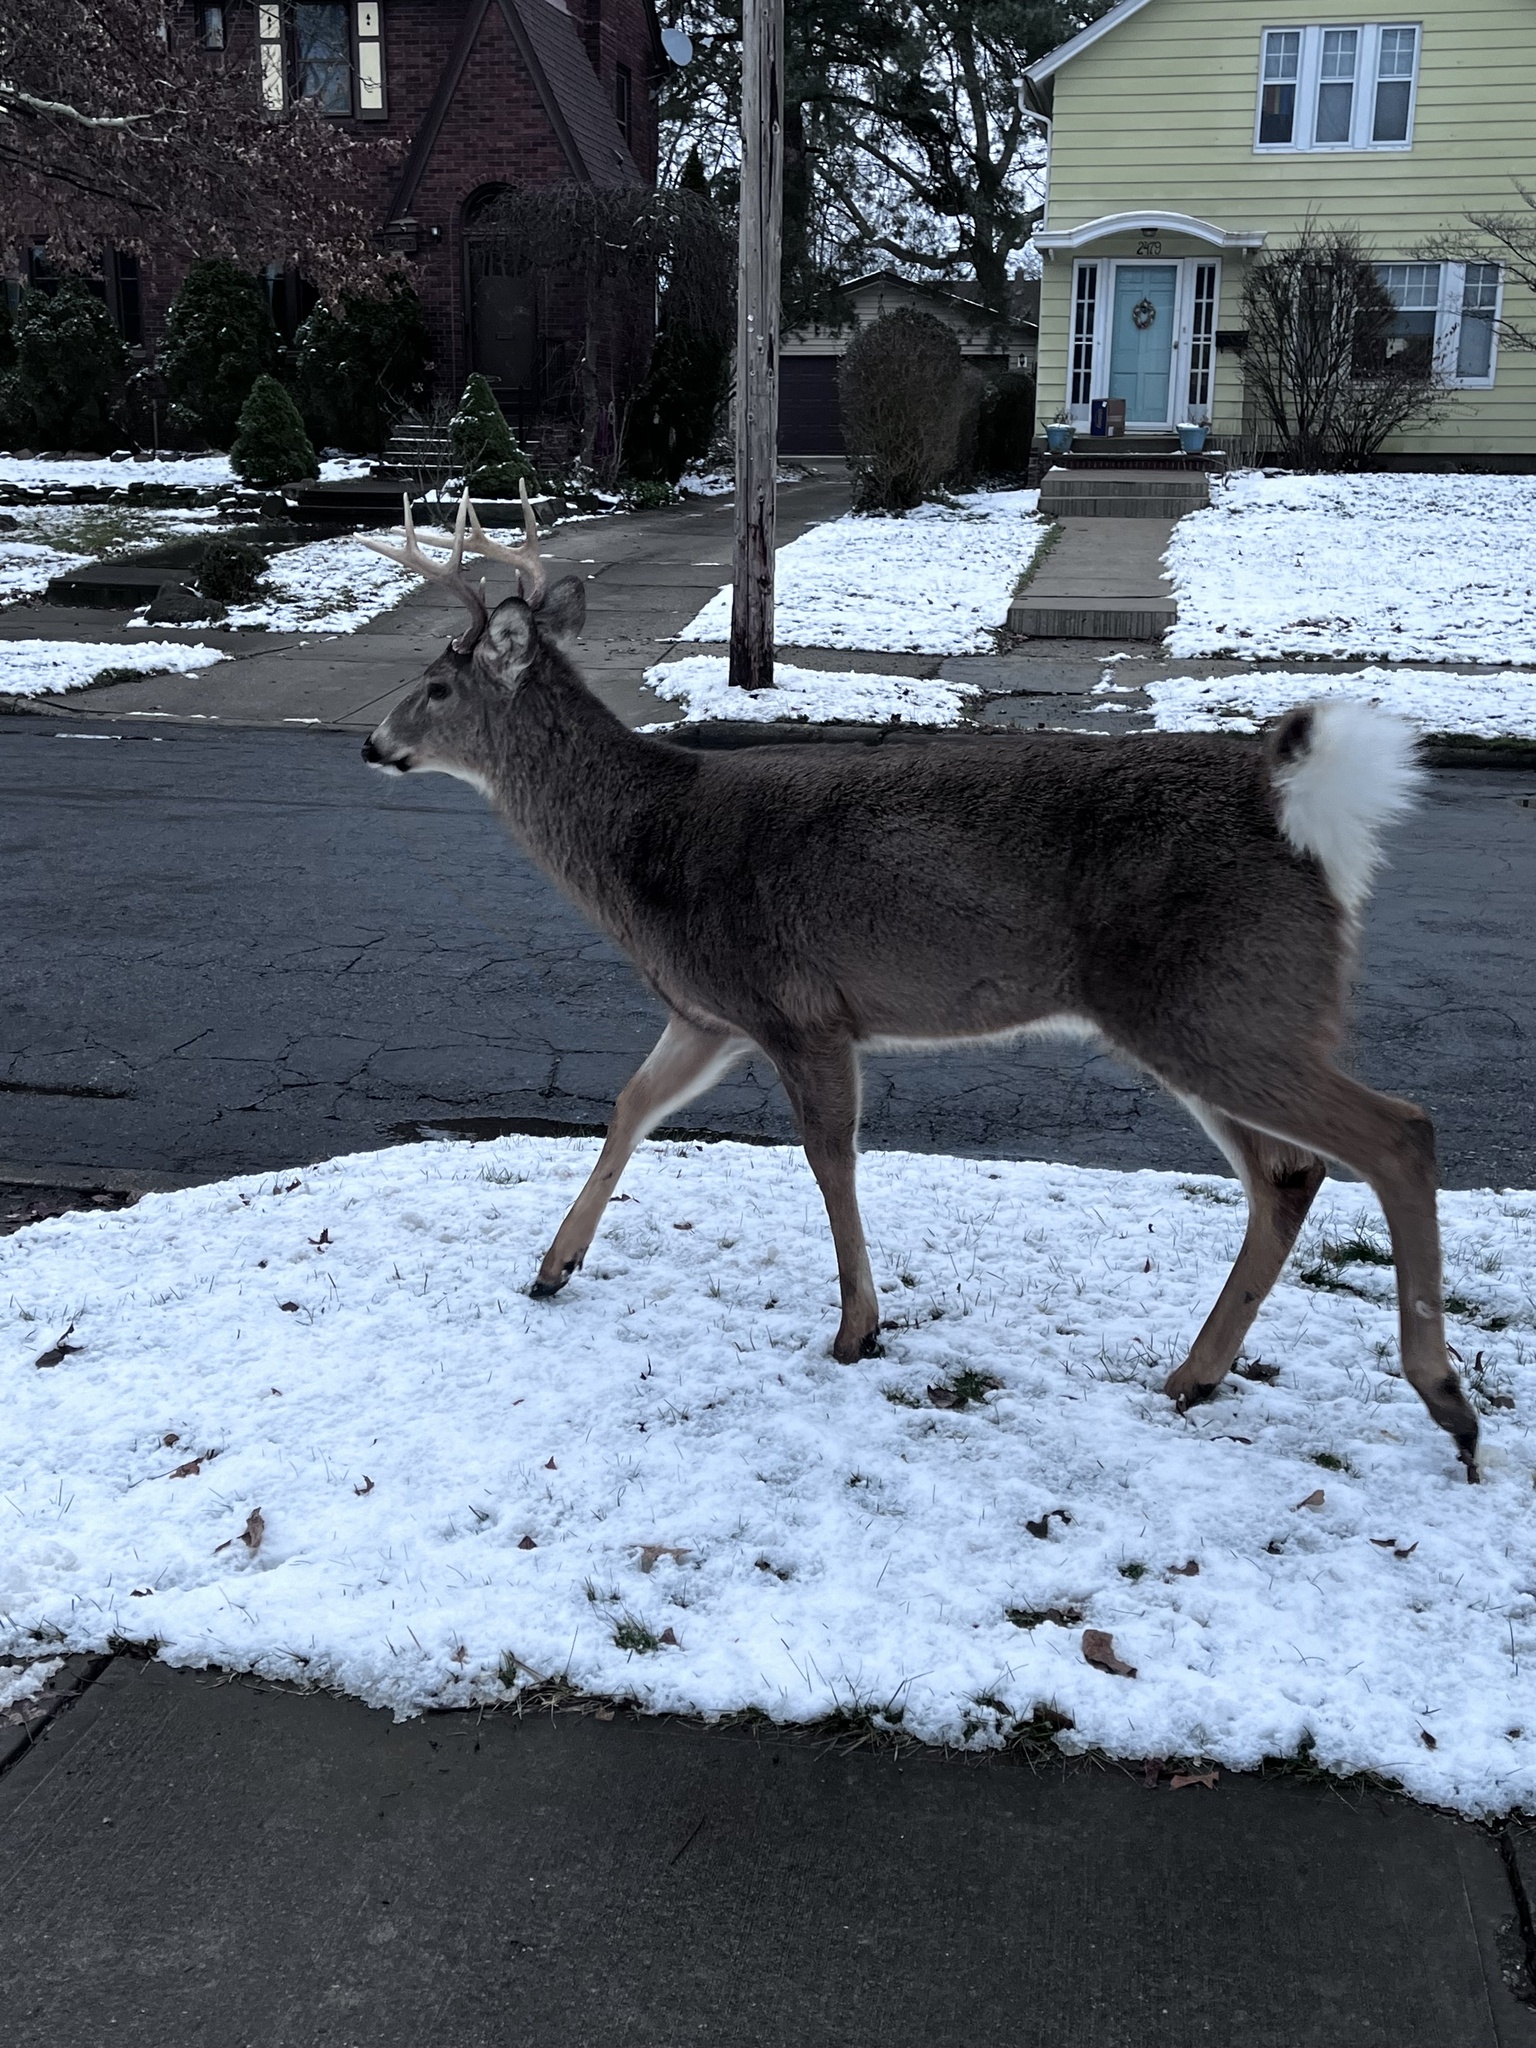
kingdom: Animalia
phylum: Chordata
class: Mammalia
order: Artiodactyla
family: Cervidae
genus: Odocoileus
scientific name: Odocoileus virginianus
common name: White-tailed deer
